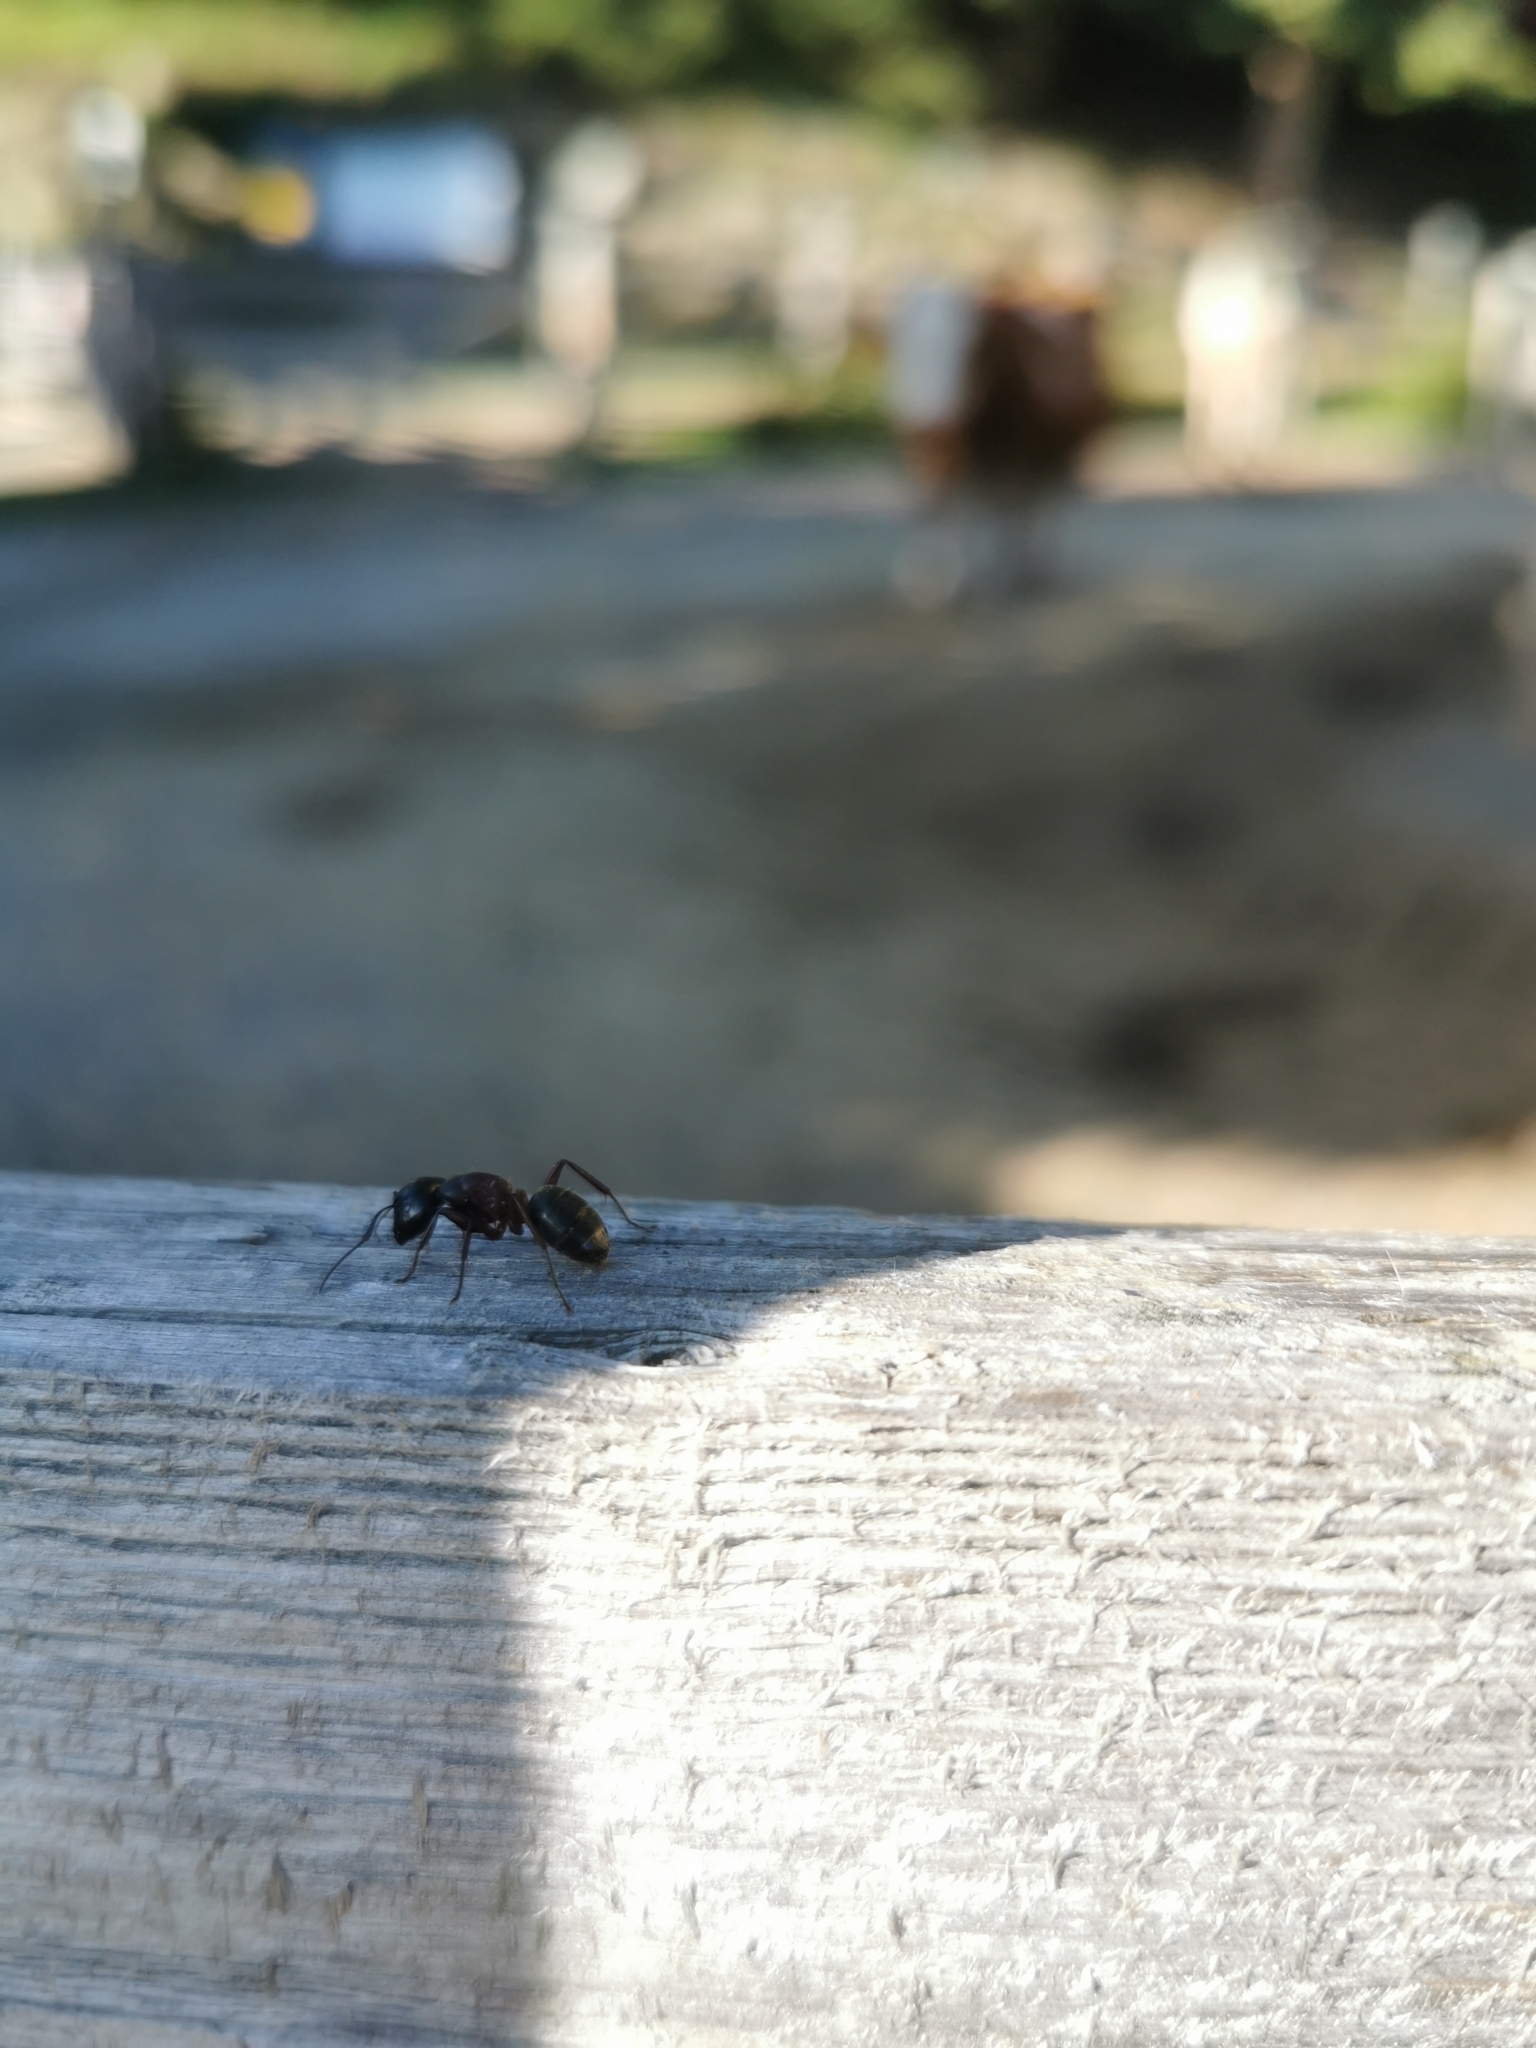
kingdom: Animalia
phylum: Arthropoda
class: Insecta
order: Hymenoptera
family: Formicidae
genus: Camponotus
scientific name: Camponotus herculeanus
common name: Hercules ant
